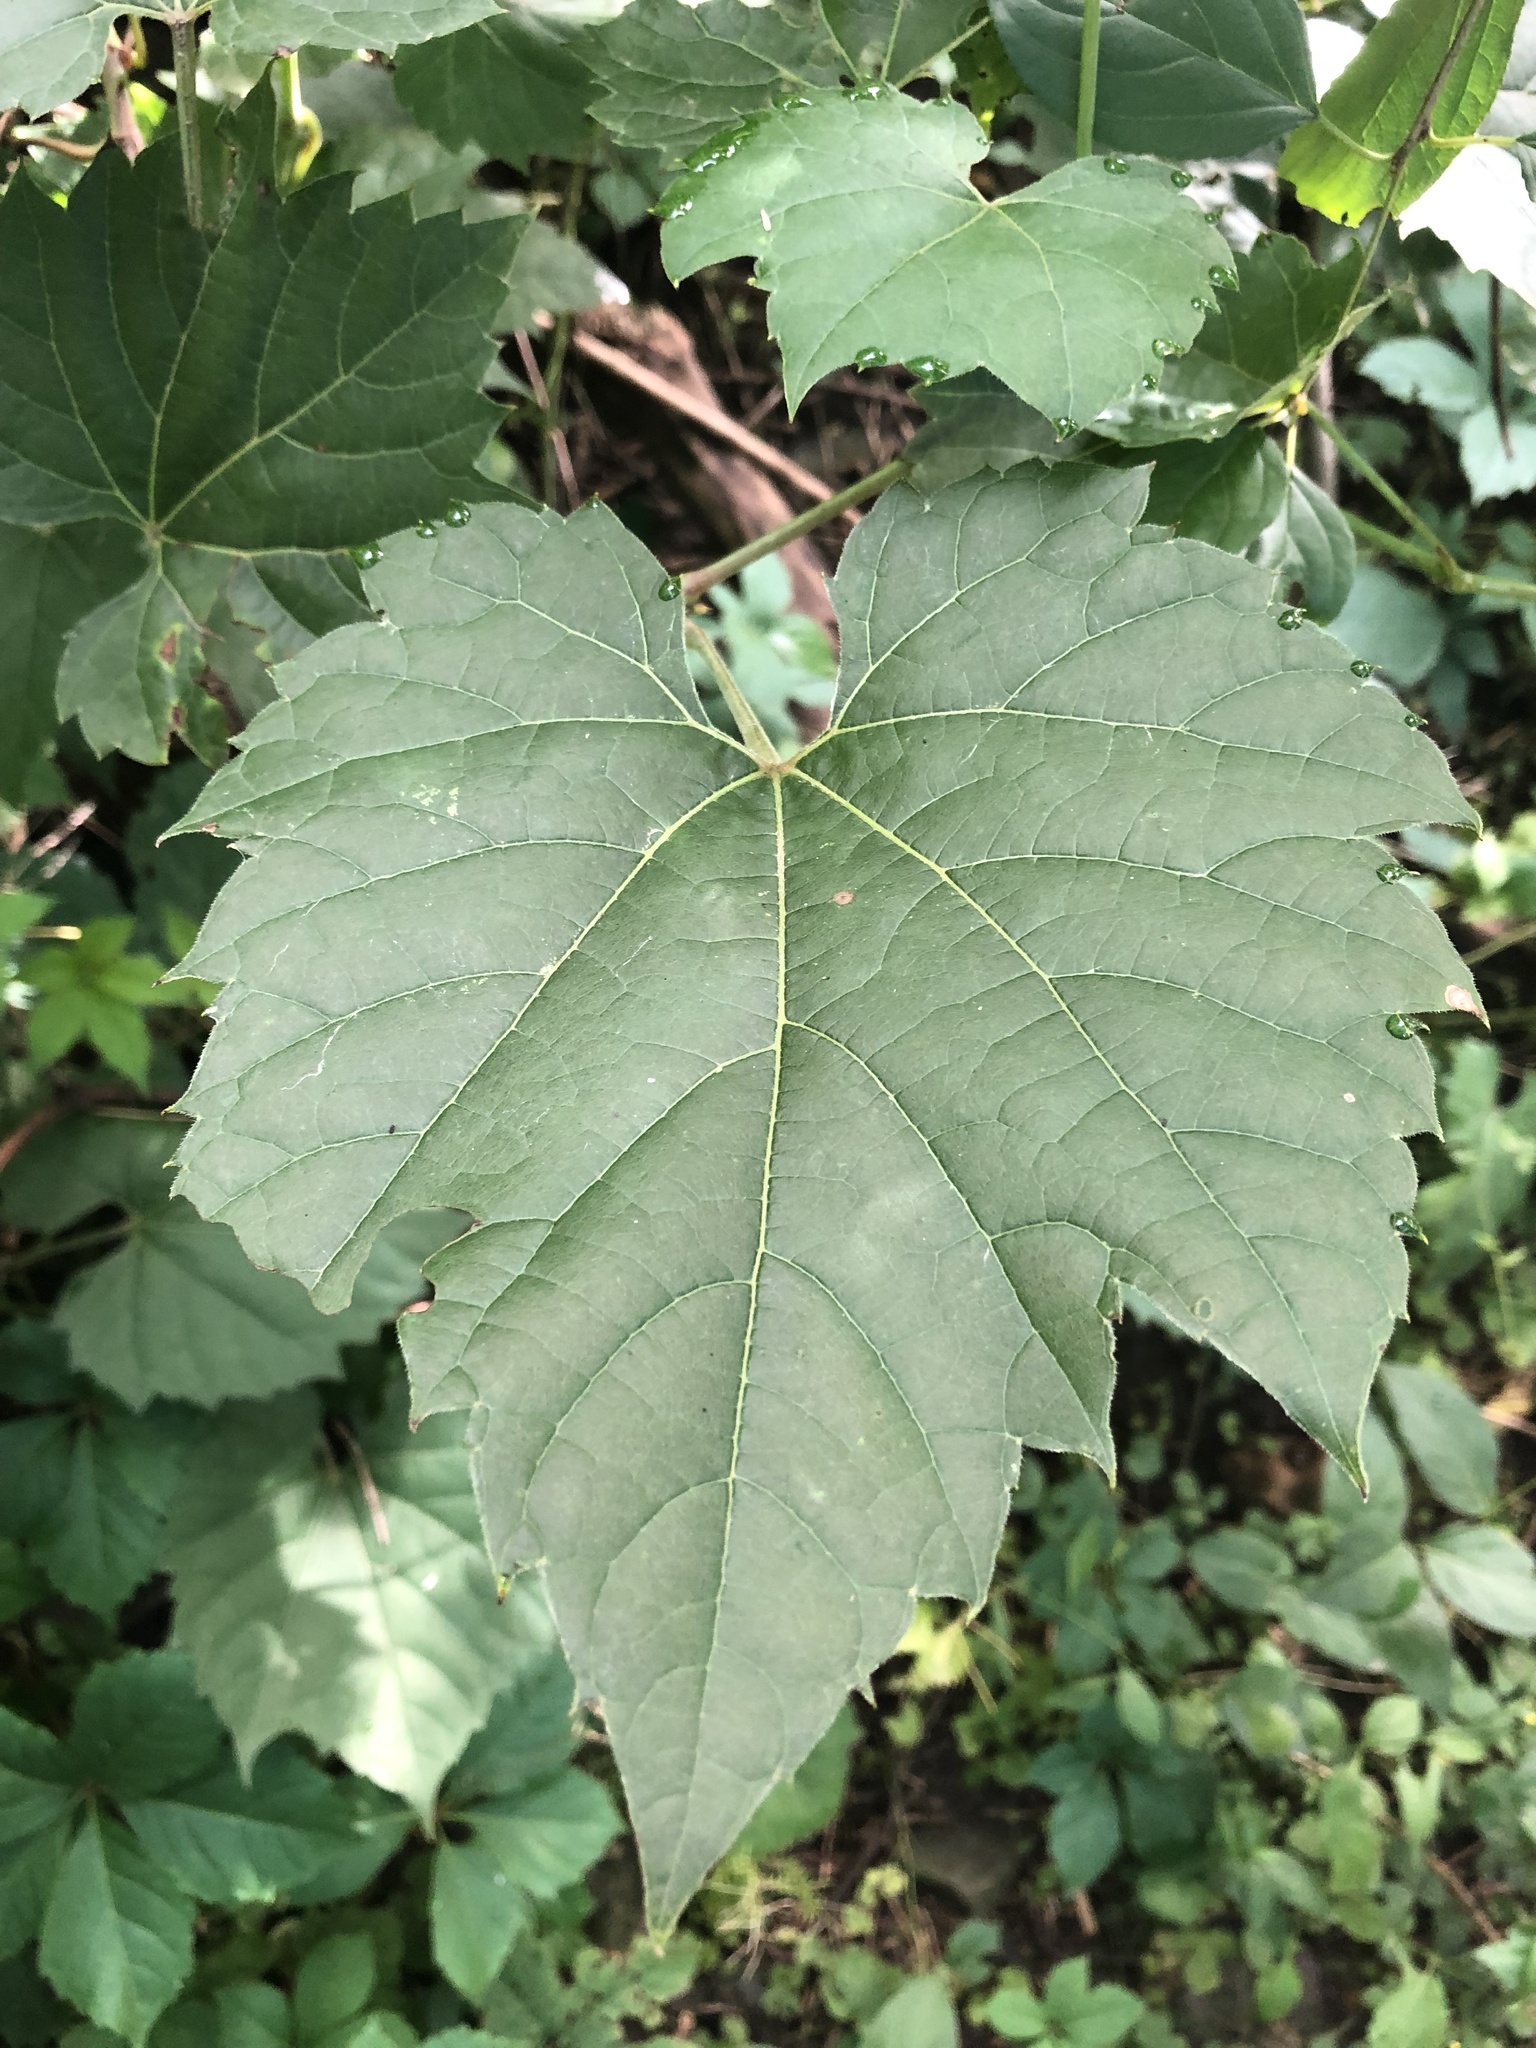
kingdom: Plantae
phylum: Tracheophyta
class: Magnoliopsida
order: Vitales
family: Vitaceae
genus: Vitis
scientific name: Vitis riparia
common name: Frost grape
